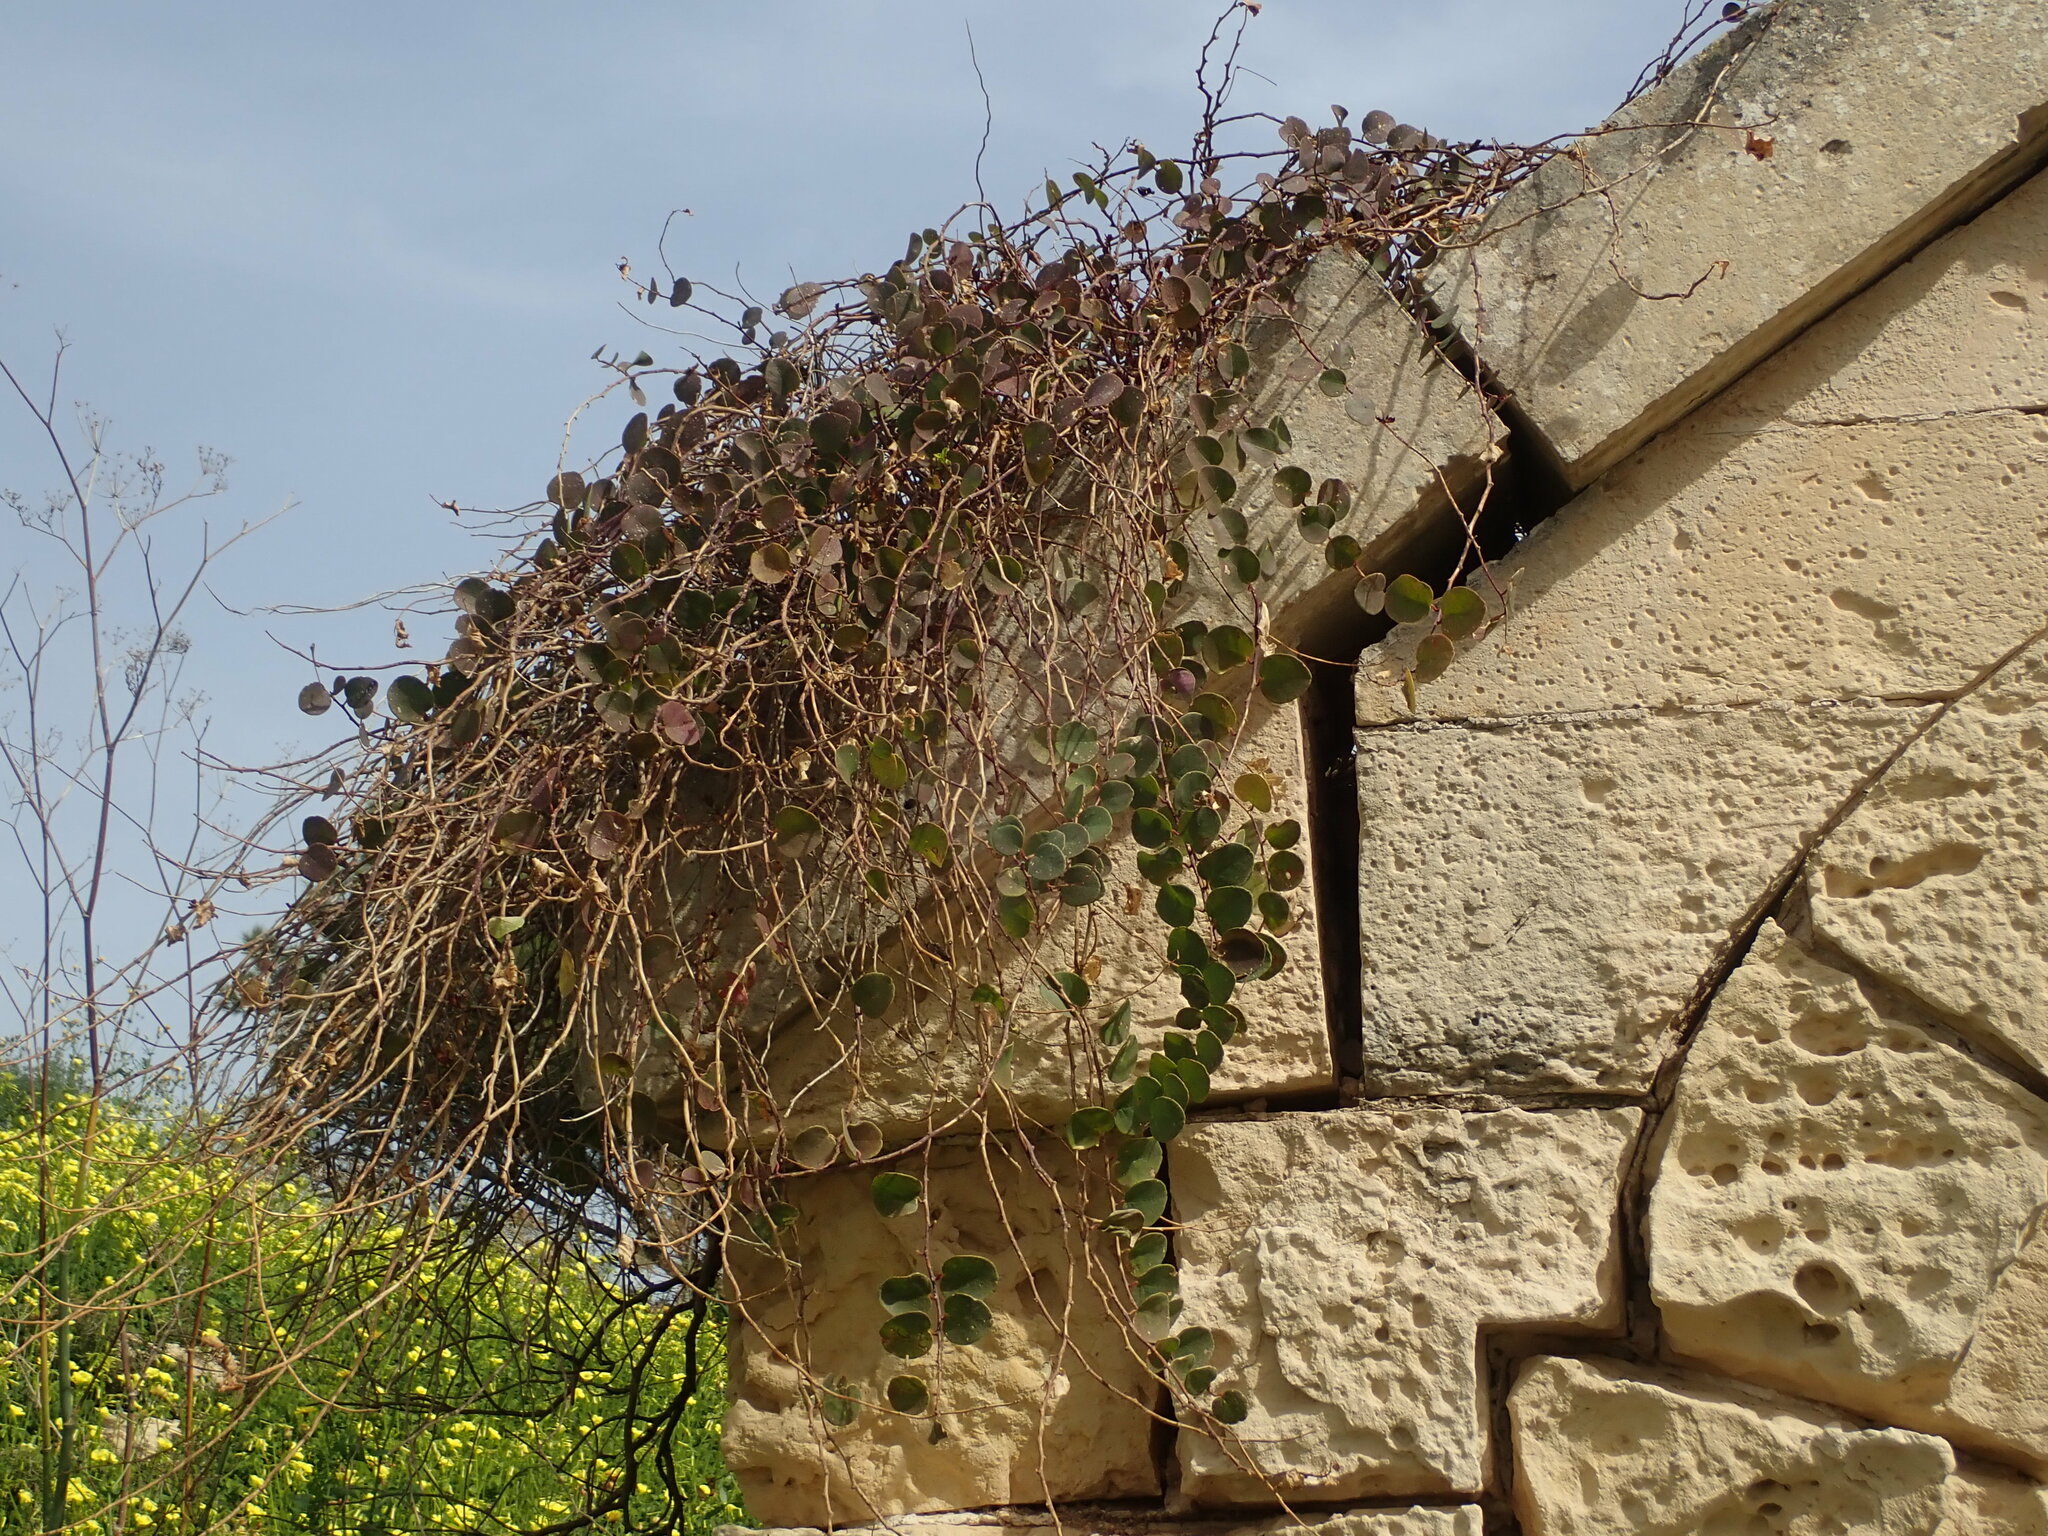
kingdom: Plantae
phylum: Tracheophyta
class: Magnoliopsida
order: Brassicales
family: Capparaceae
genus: Capparis
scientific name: Capparis orientalis
